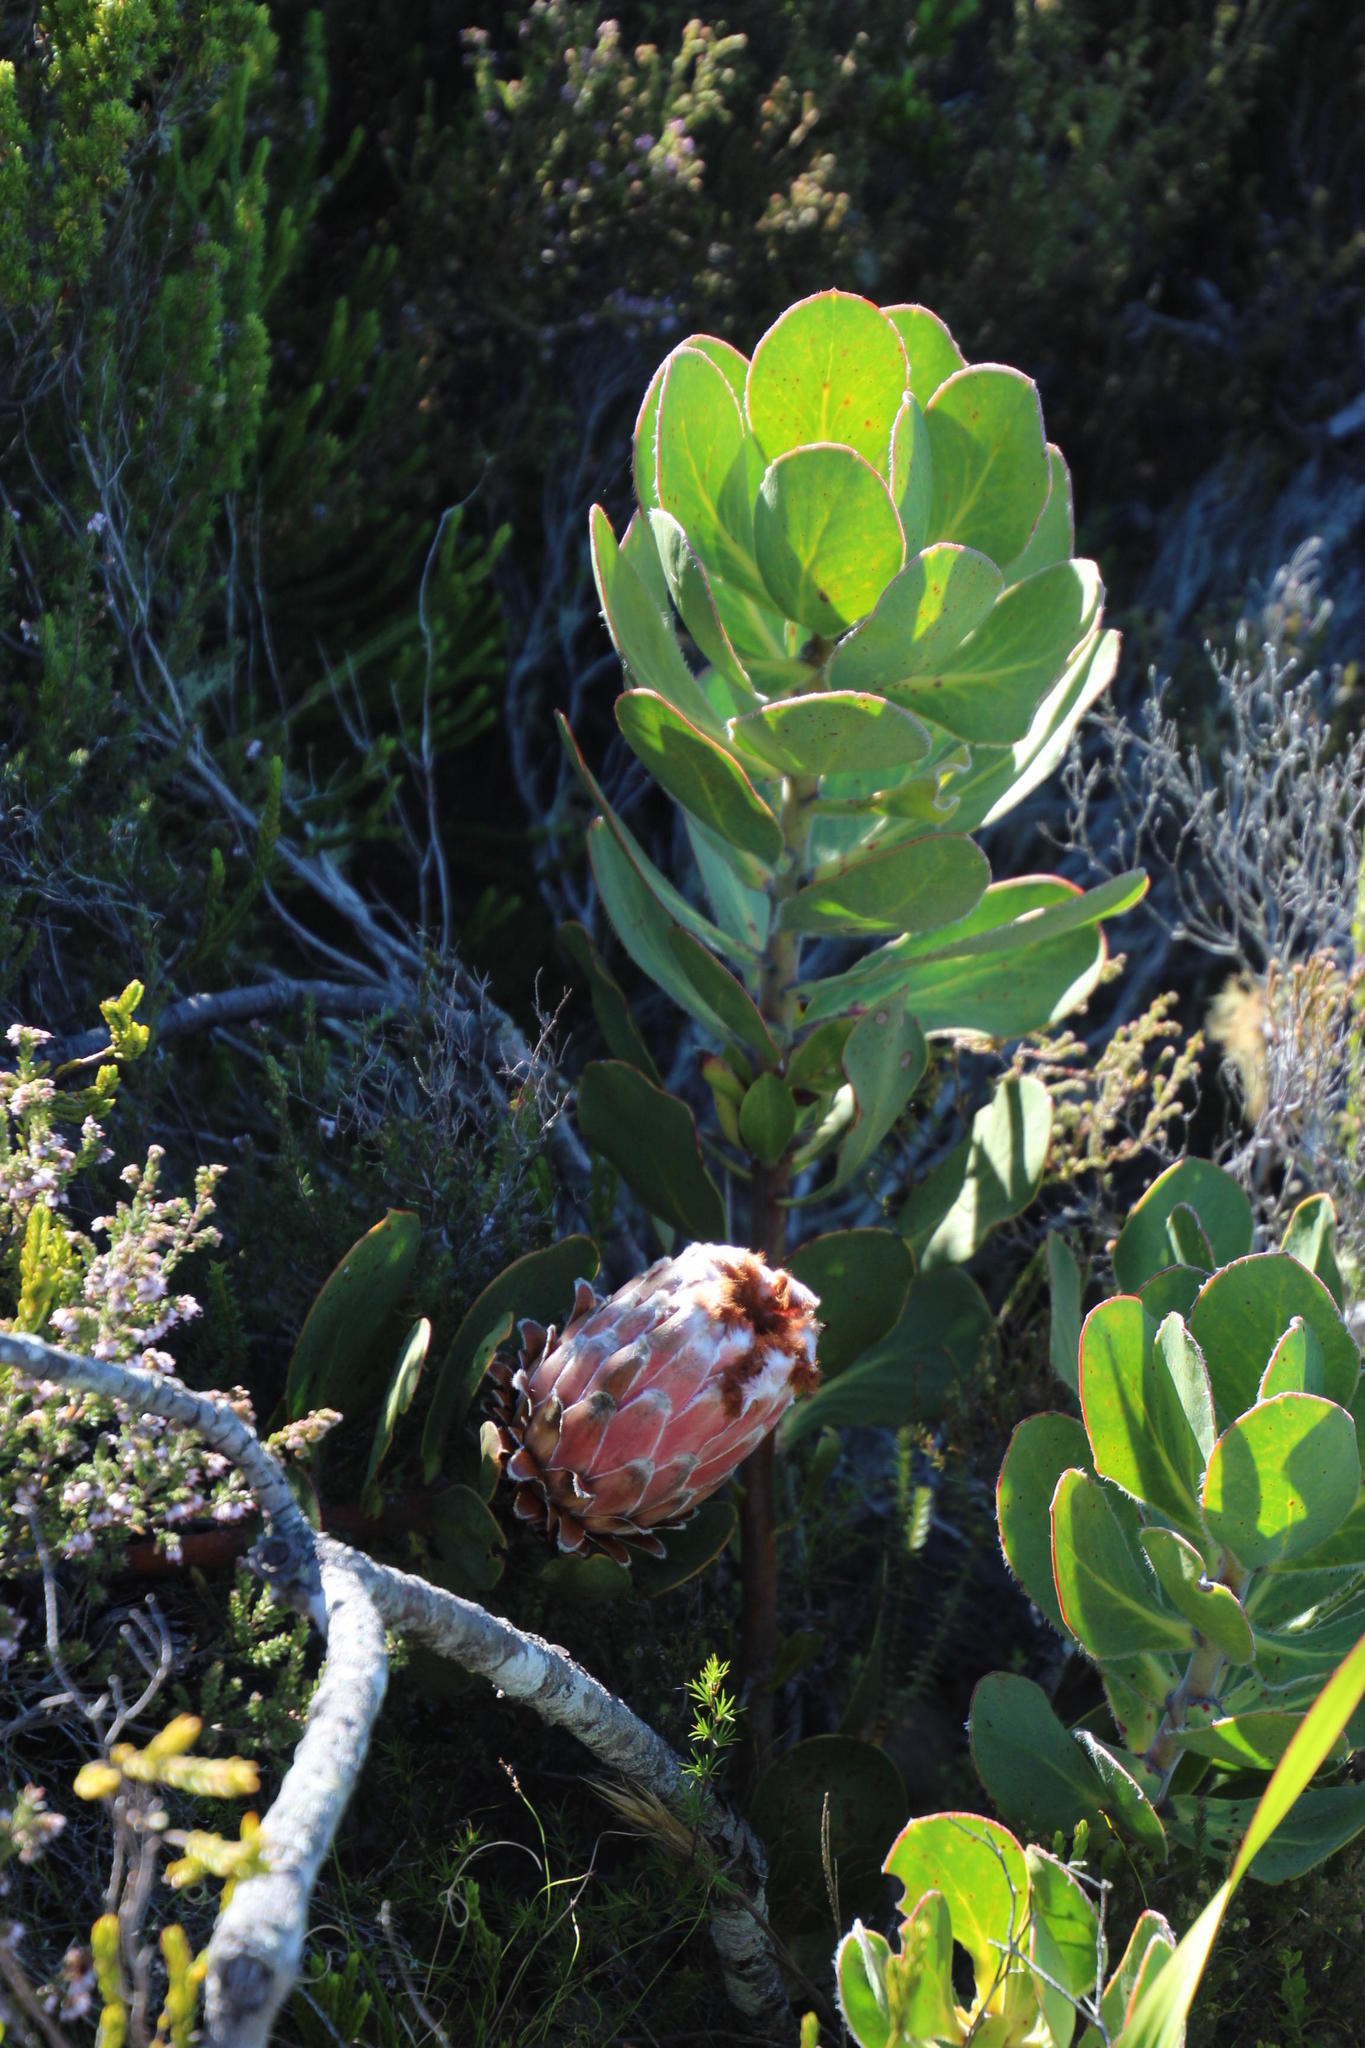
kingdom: Plantae
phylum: Tracheophyta
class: Magnoliopsida
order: Proteales
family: Proteaceae
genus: Protea
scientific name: Protea speciosa
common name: Brown-beard sugarbush
